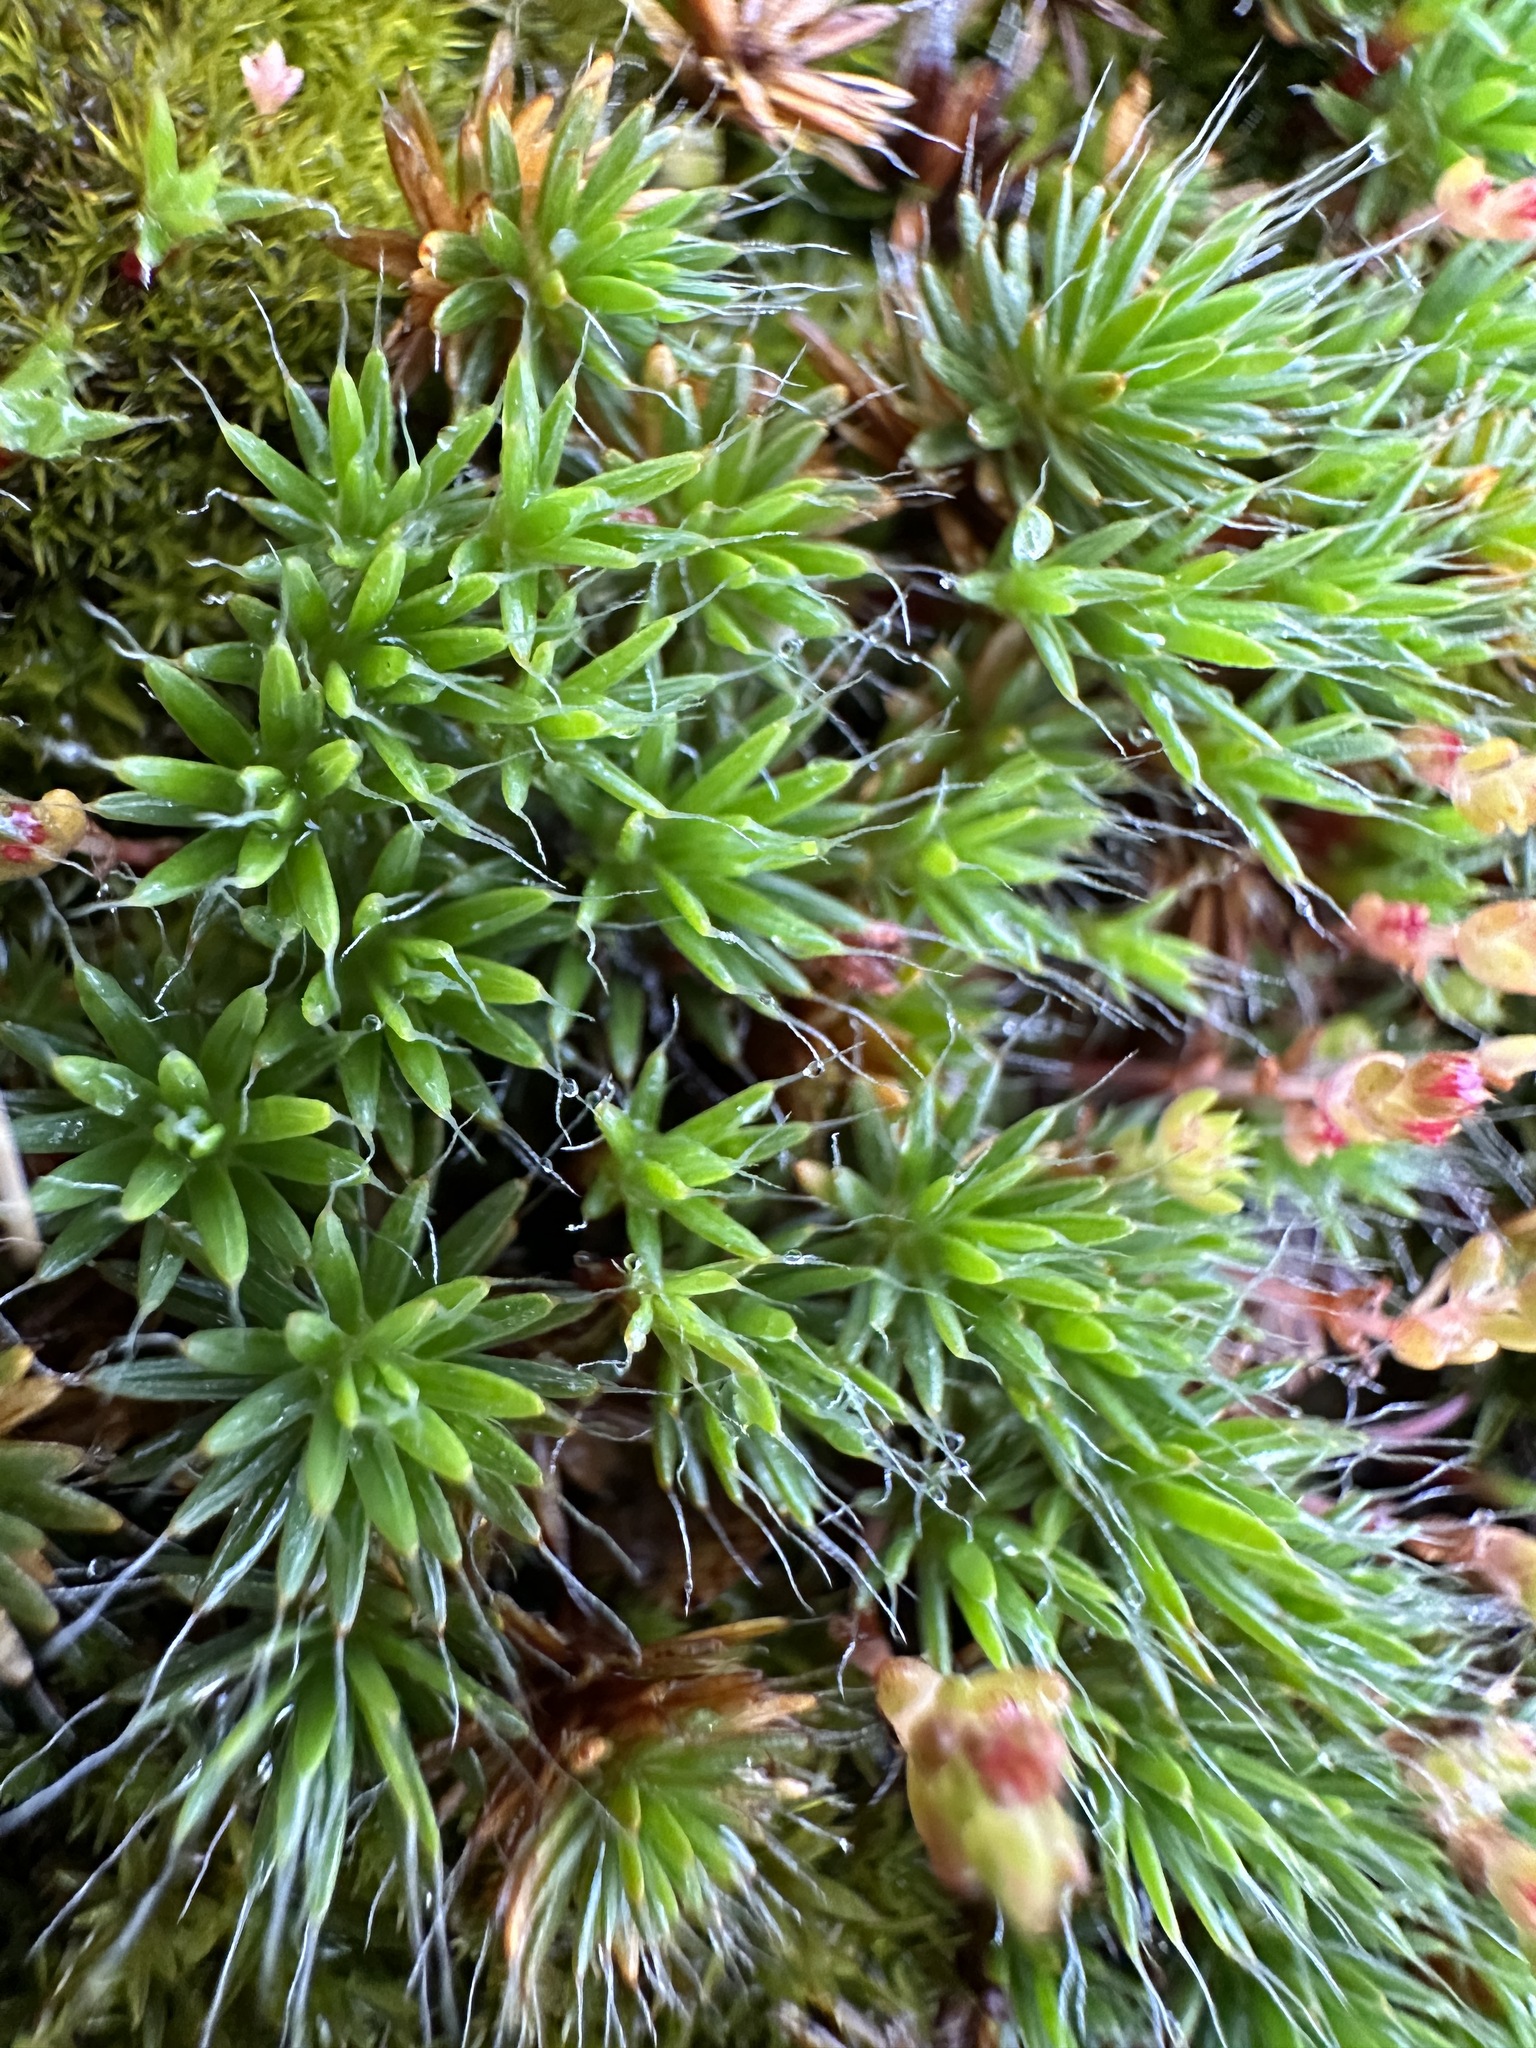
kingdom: Plantae
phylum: Bryophyta
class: Polytrichopsida
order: Polytrichales
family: Polytrichaceae
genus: Polytrichum
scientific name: Polytrichum piliferum
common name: Bristly haircap
